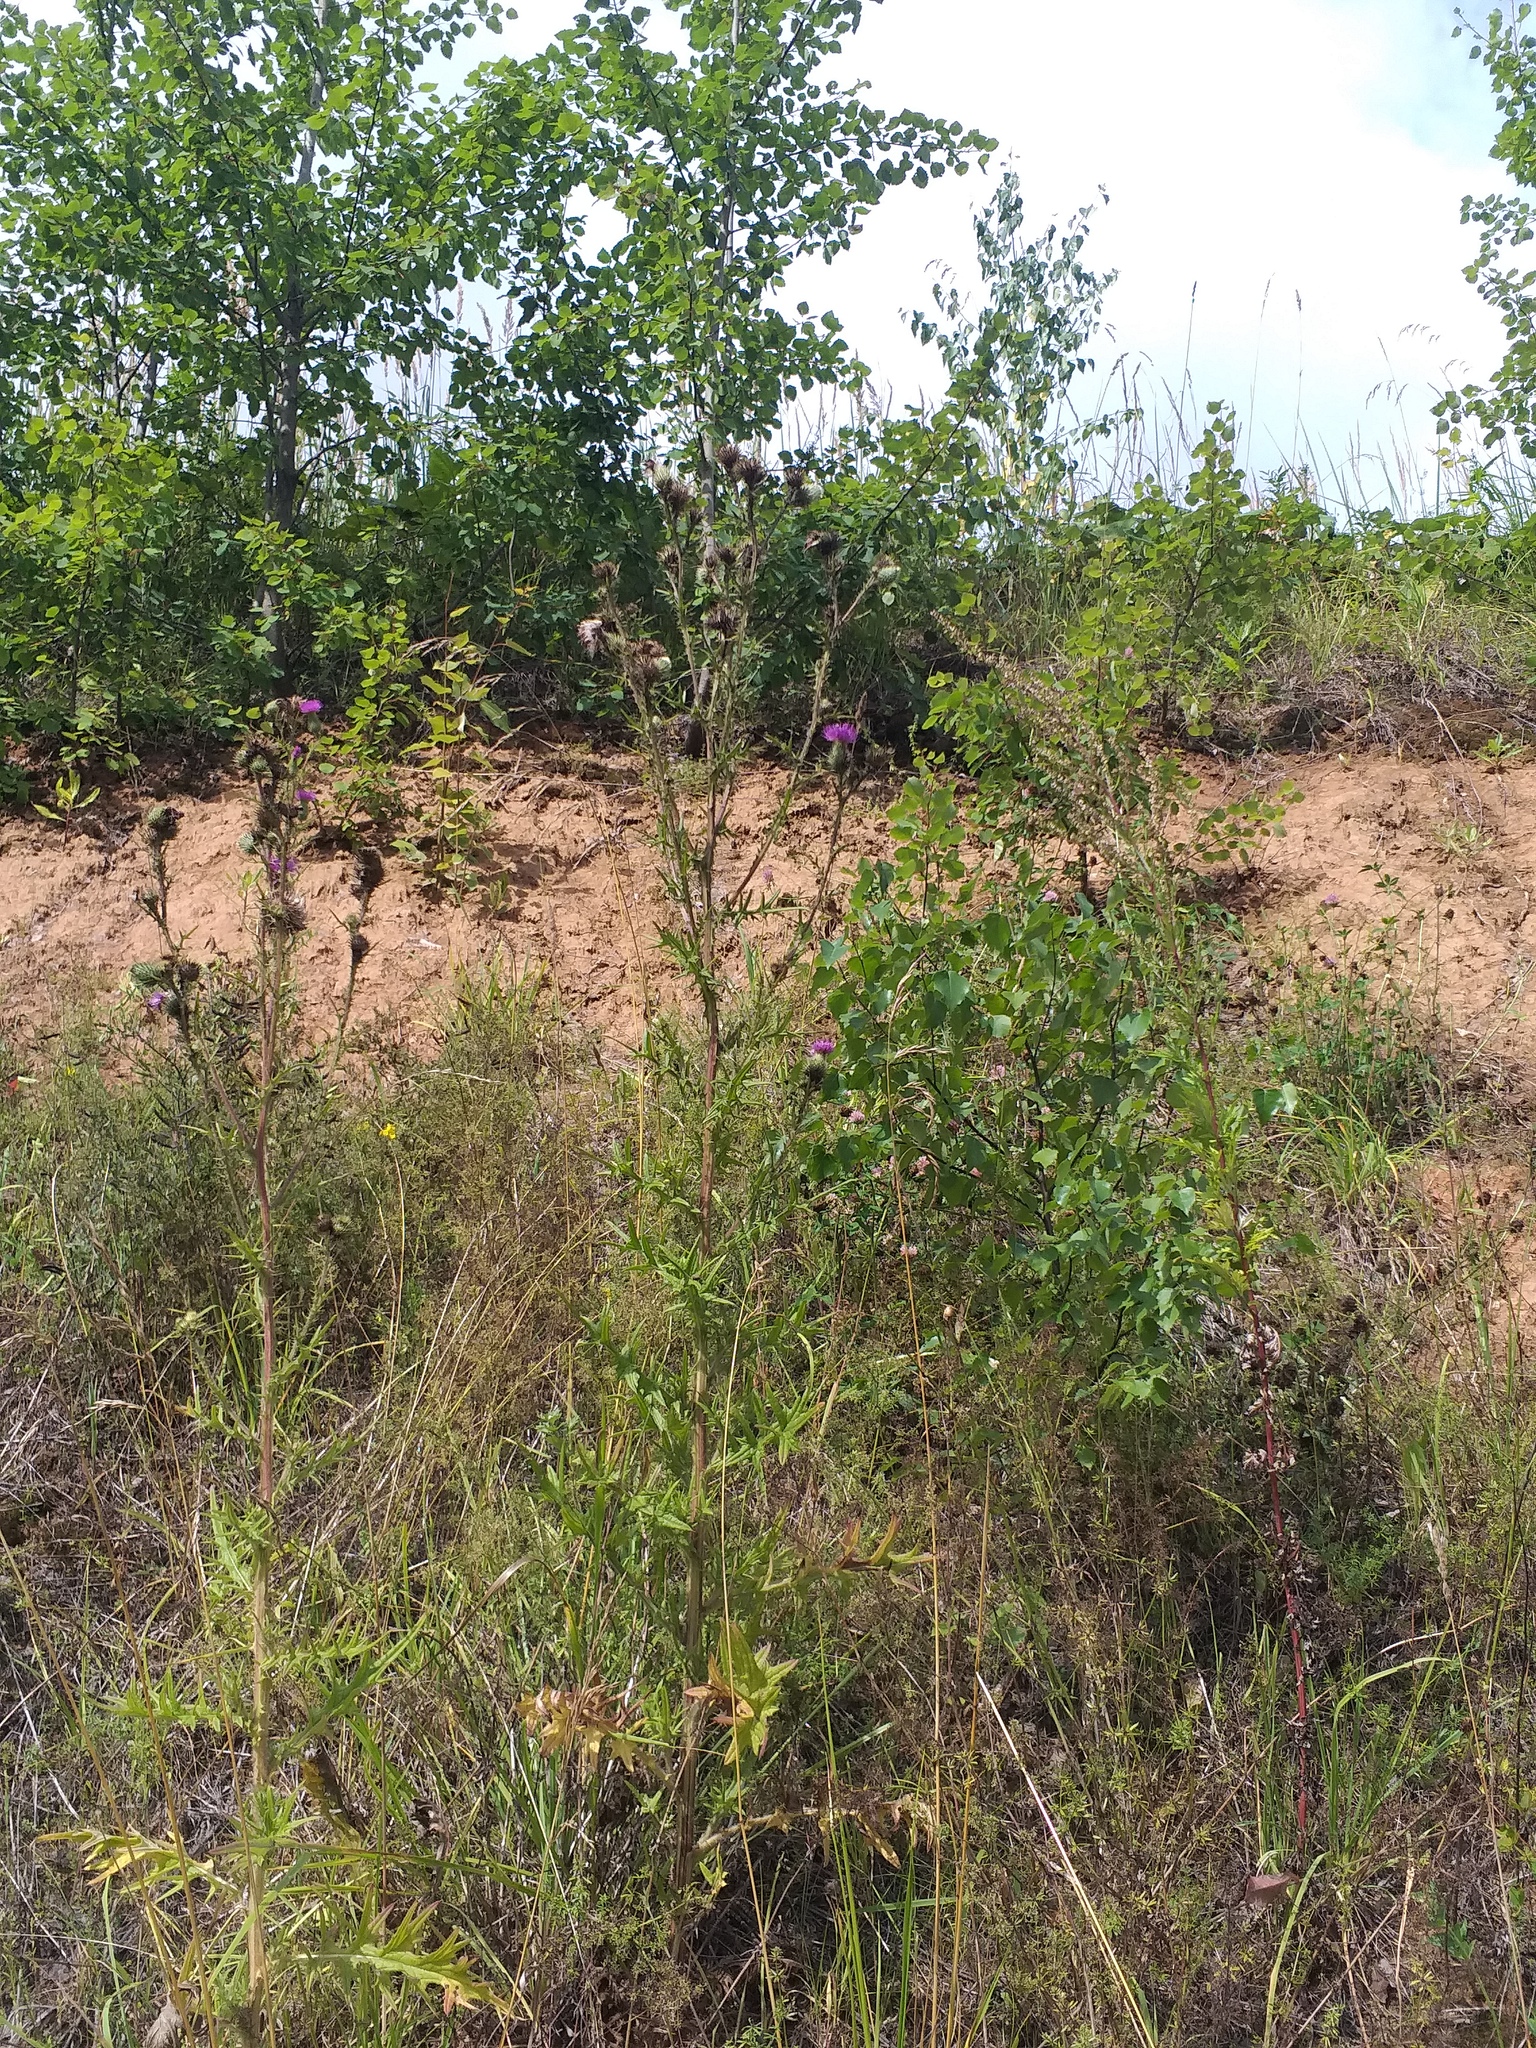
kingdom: Plantae
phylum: Tracheophyta
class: Magnoliopsida
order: Asterales
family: Asteraceae
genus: Cirsium
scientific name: Cirsium vulgare
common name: Bull thistle
